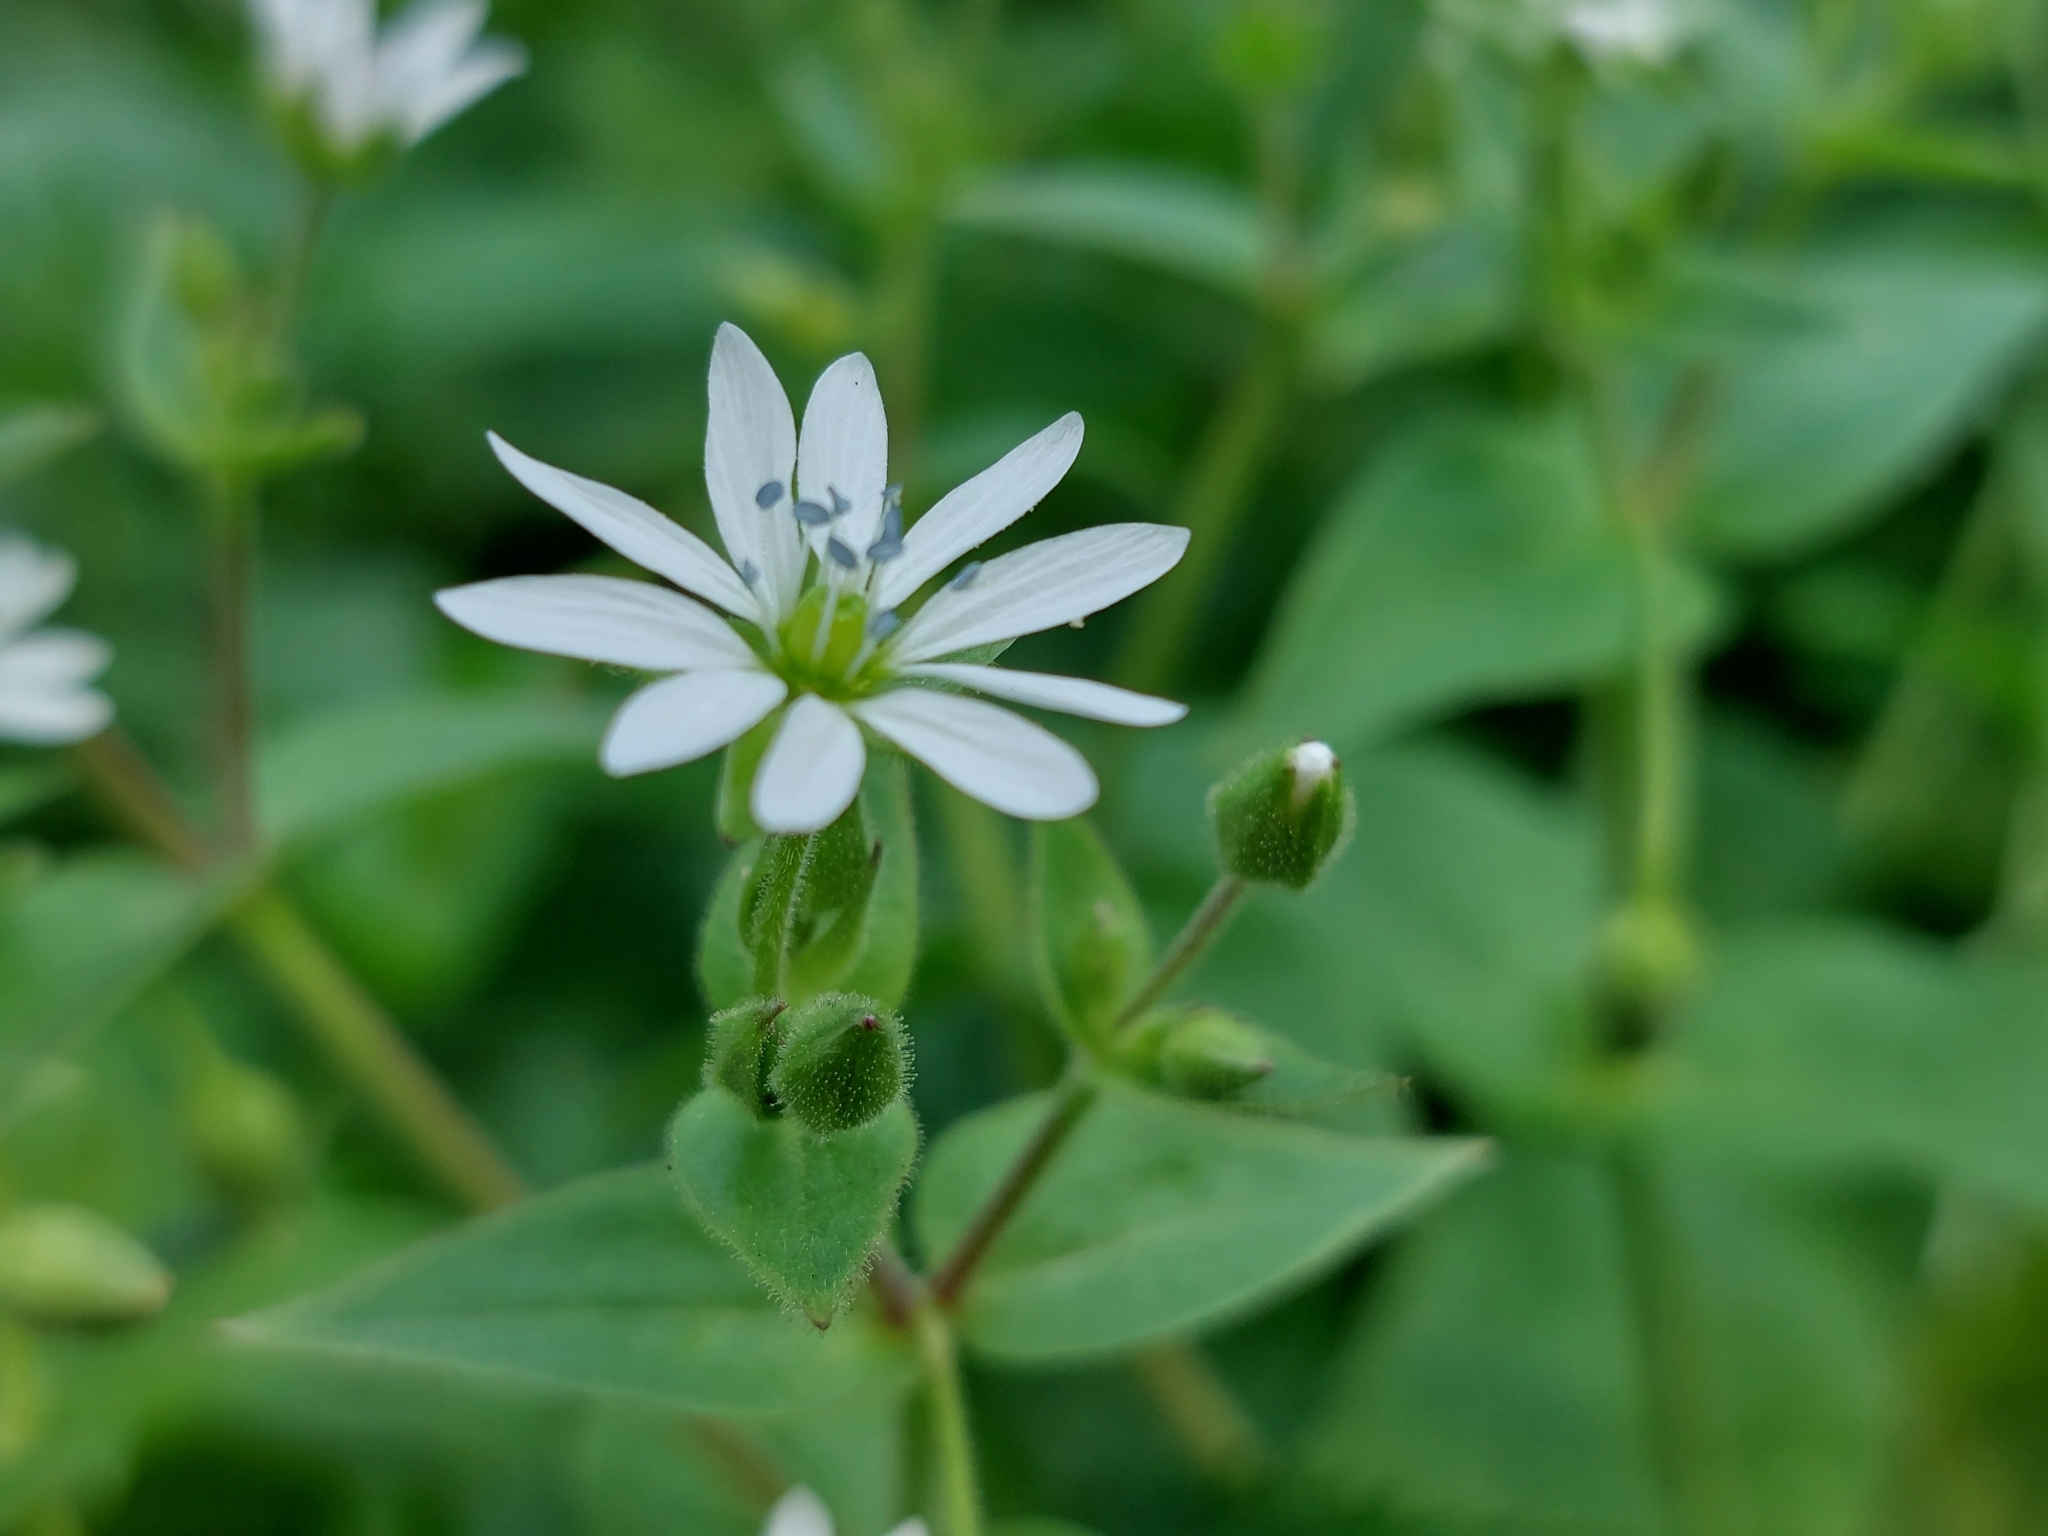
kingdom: Plantae
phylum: Tracheophyta
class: Magnoliopsida
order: Caryophyllales
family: Caryophyllaceae
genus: Stellaria
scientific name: Stellaria aquatica
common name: Water chickweed
